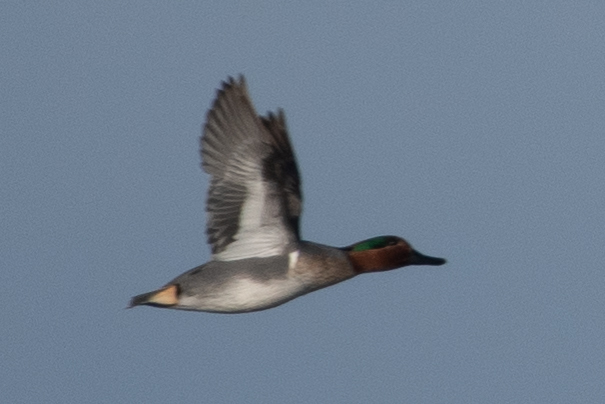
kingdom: Animalia
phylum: Chordata
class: Aves
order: Anseriformes
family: Anatidae
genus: Anas
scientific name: Anas crecca
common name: Eurasian teal
